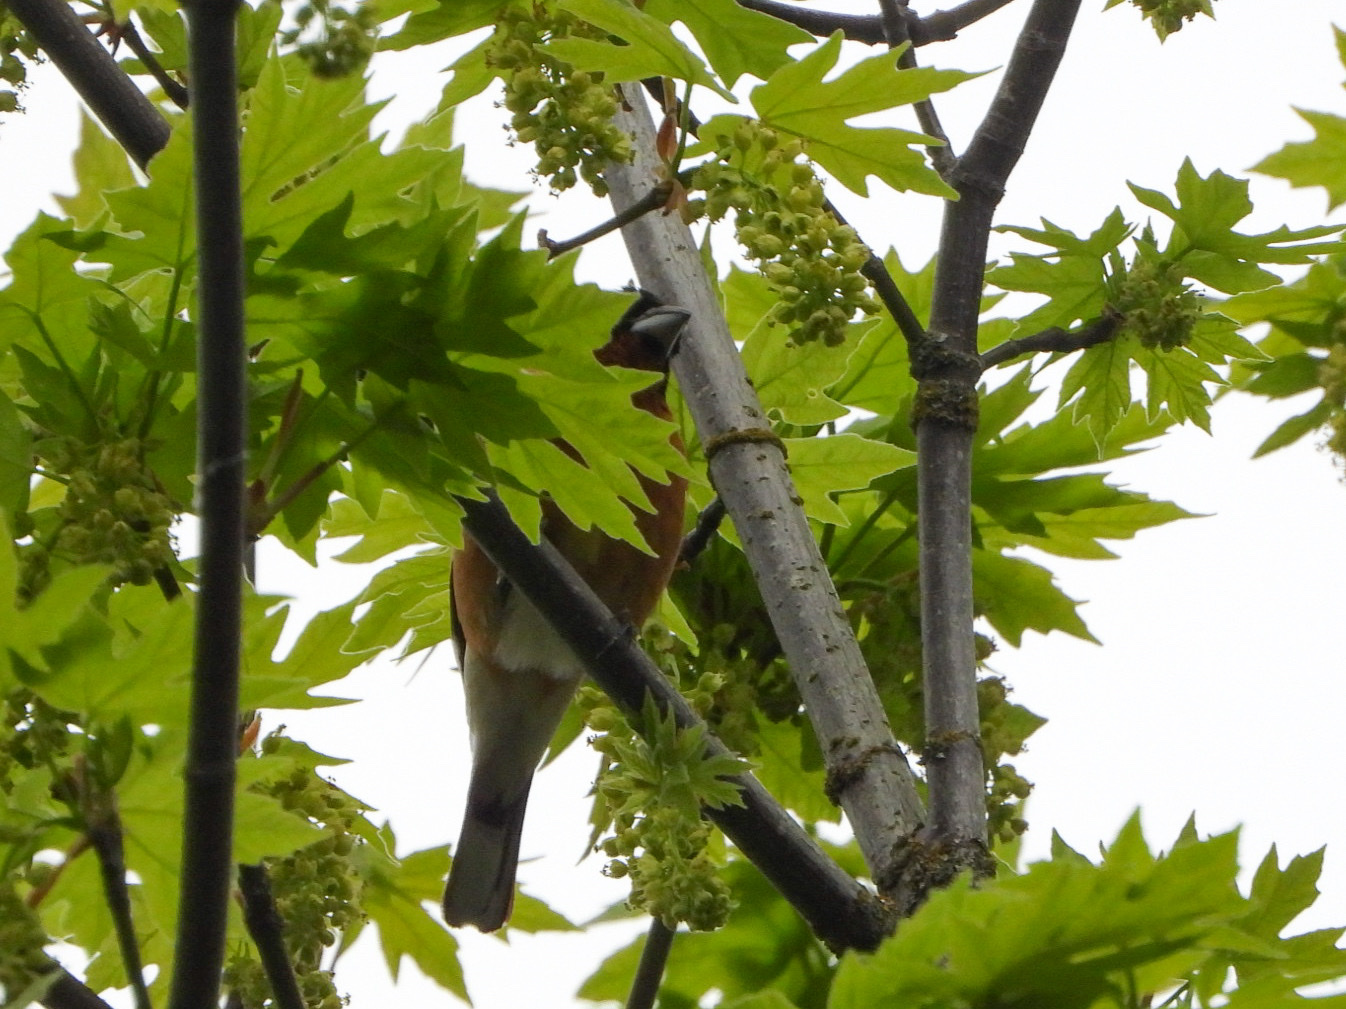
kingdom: Animalia
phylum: Chordata
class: Aves
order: Passeriformes
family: Cardinalidae
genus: Pheucticus
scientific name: Pheucticus melanocephalus
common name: Black-headed grosbeak
